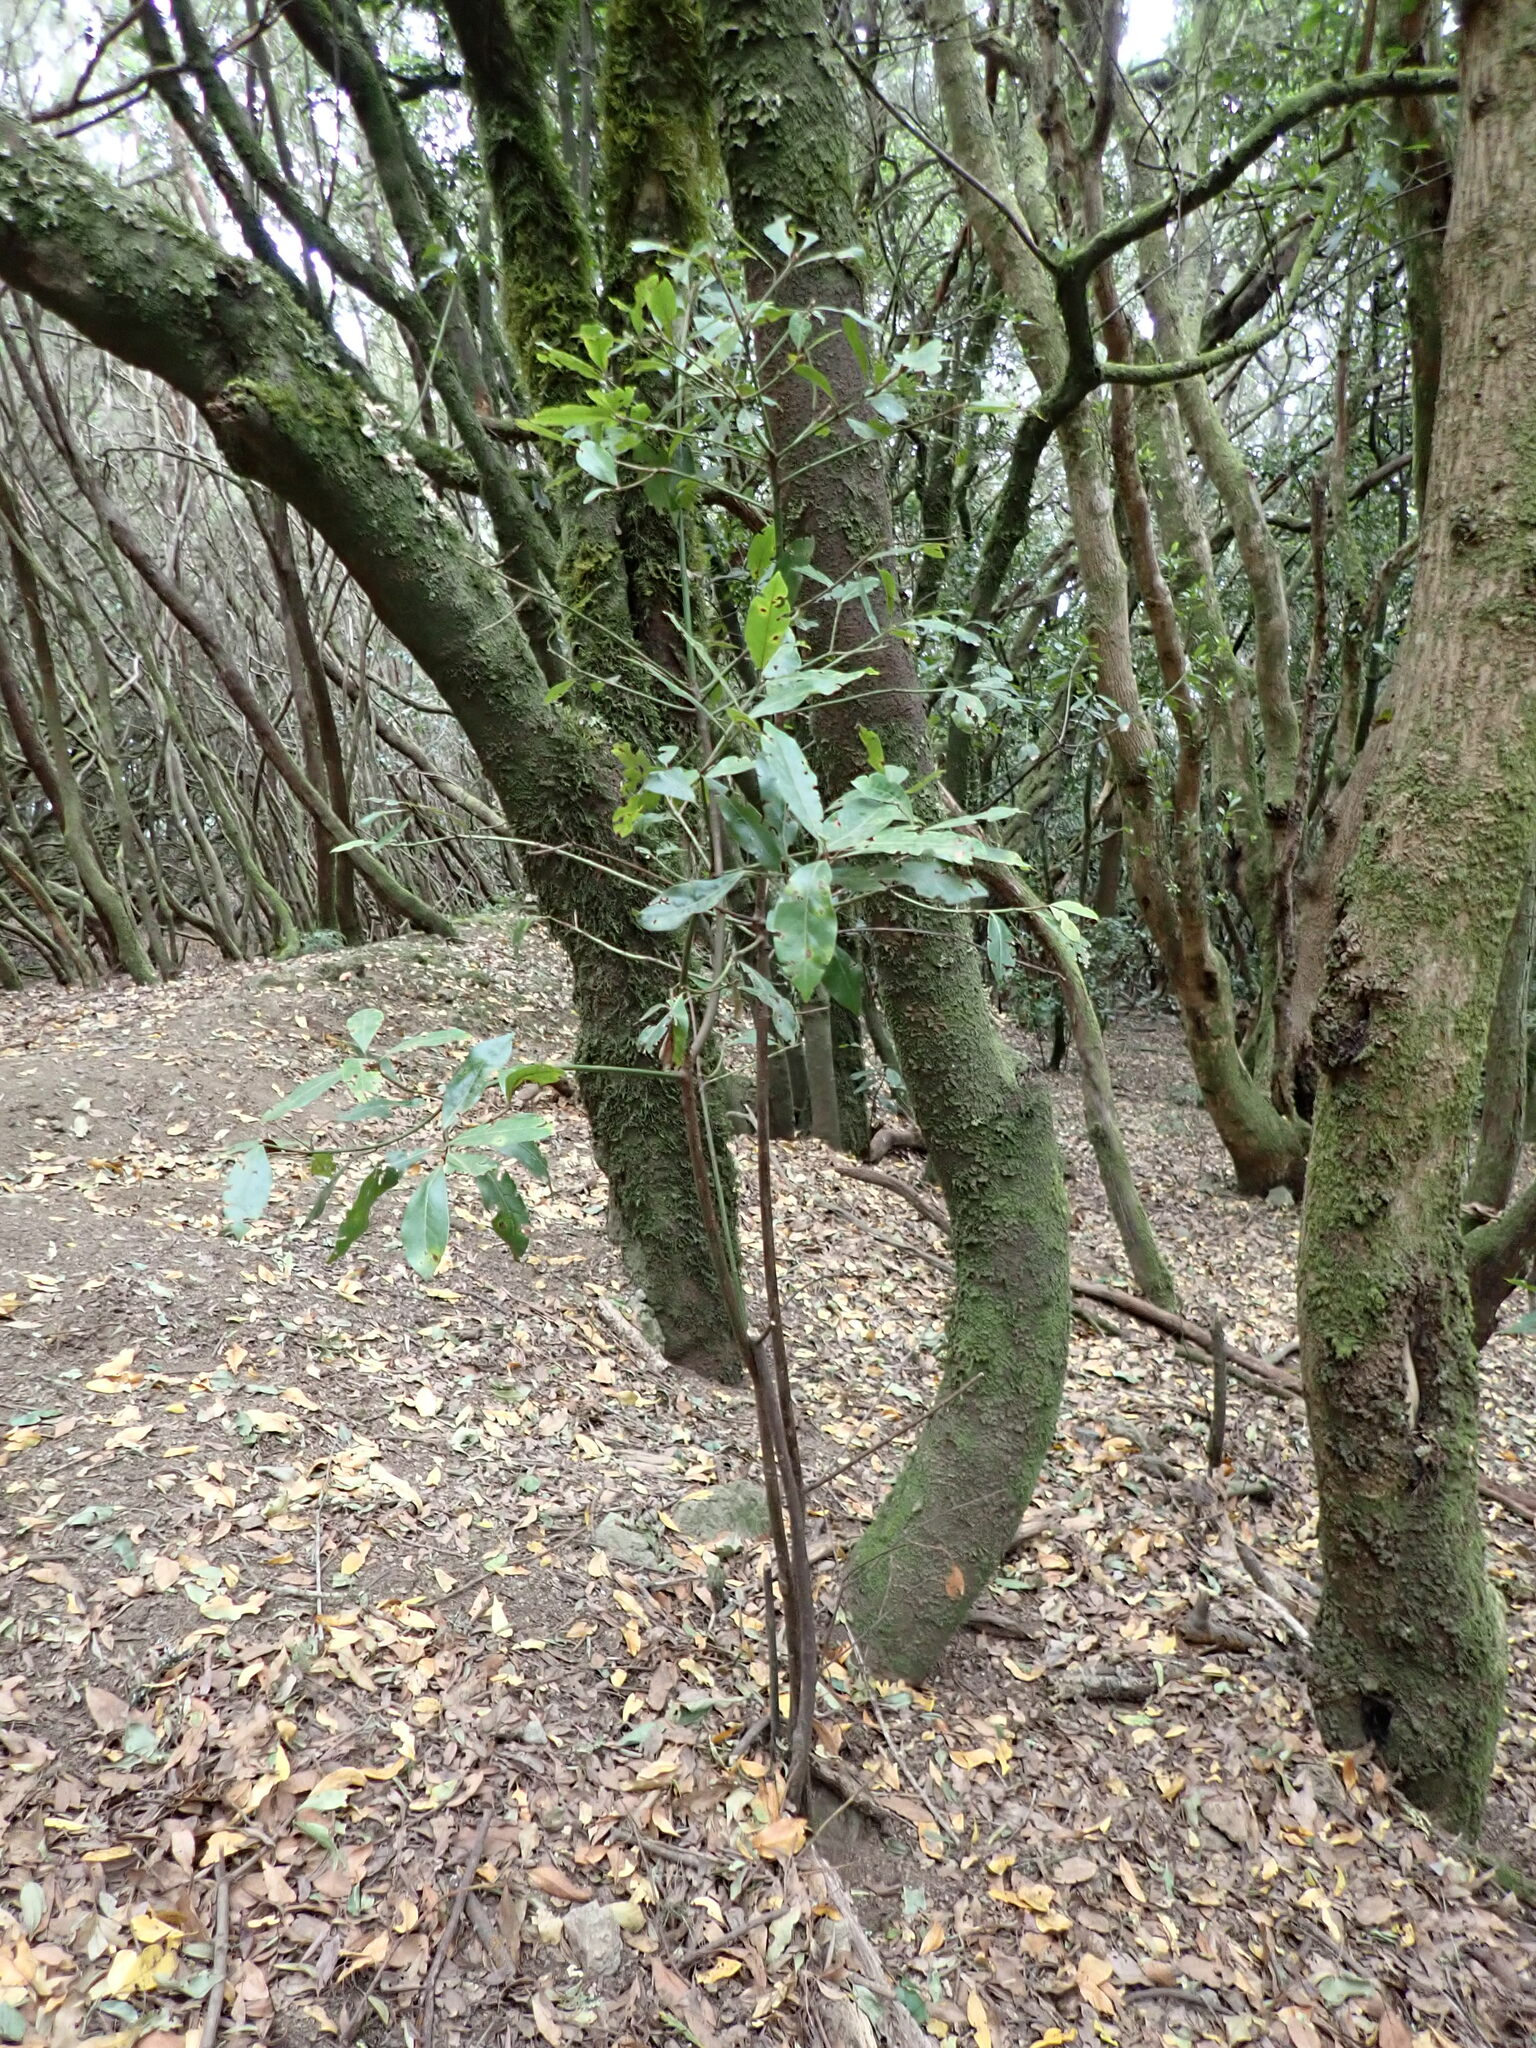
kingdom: Plantae
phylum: Tracheophyta
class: Magnoliopsida
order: Laurales
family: Lauraceae
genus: Laurus
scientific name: Laurus novocanariensis
